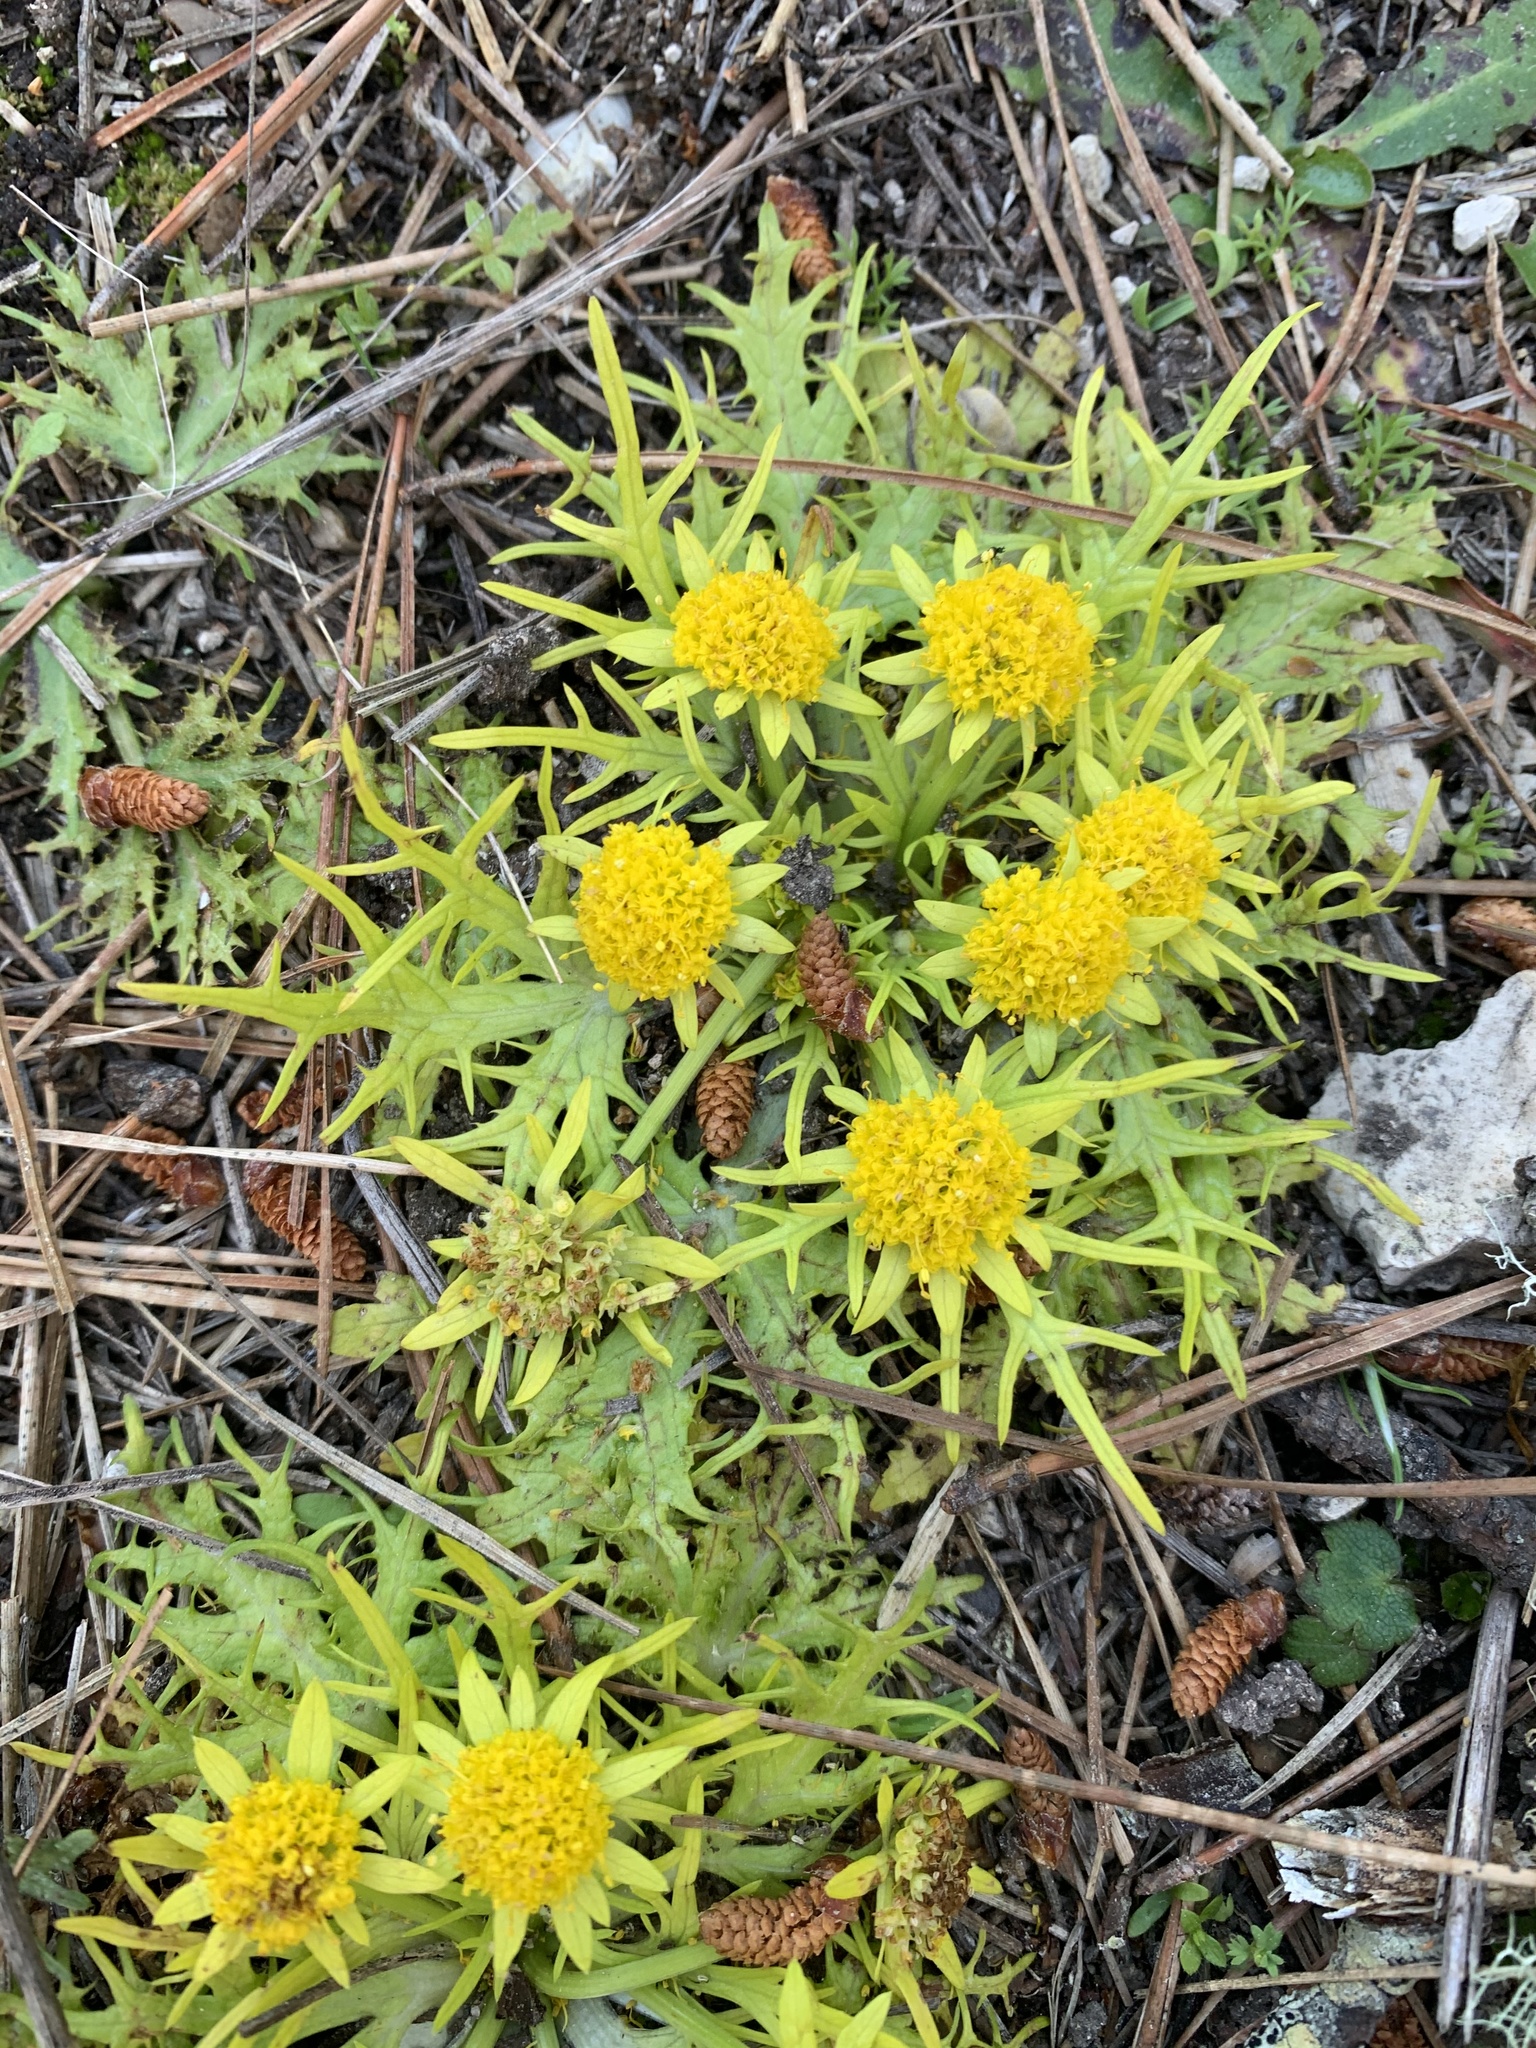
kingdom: Plantae
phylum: Tracheophyta
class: Magnoliopsida
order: Apiales
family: Apiaceae
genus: Sanicula
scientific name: Sanicula arctopoides
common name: Footsteps-of-spring
